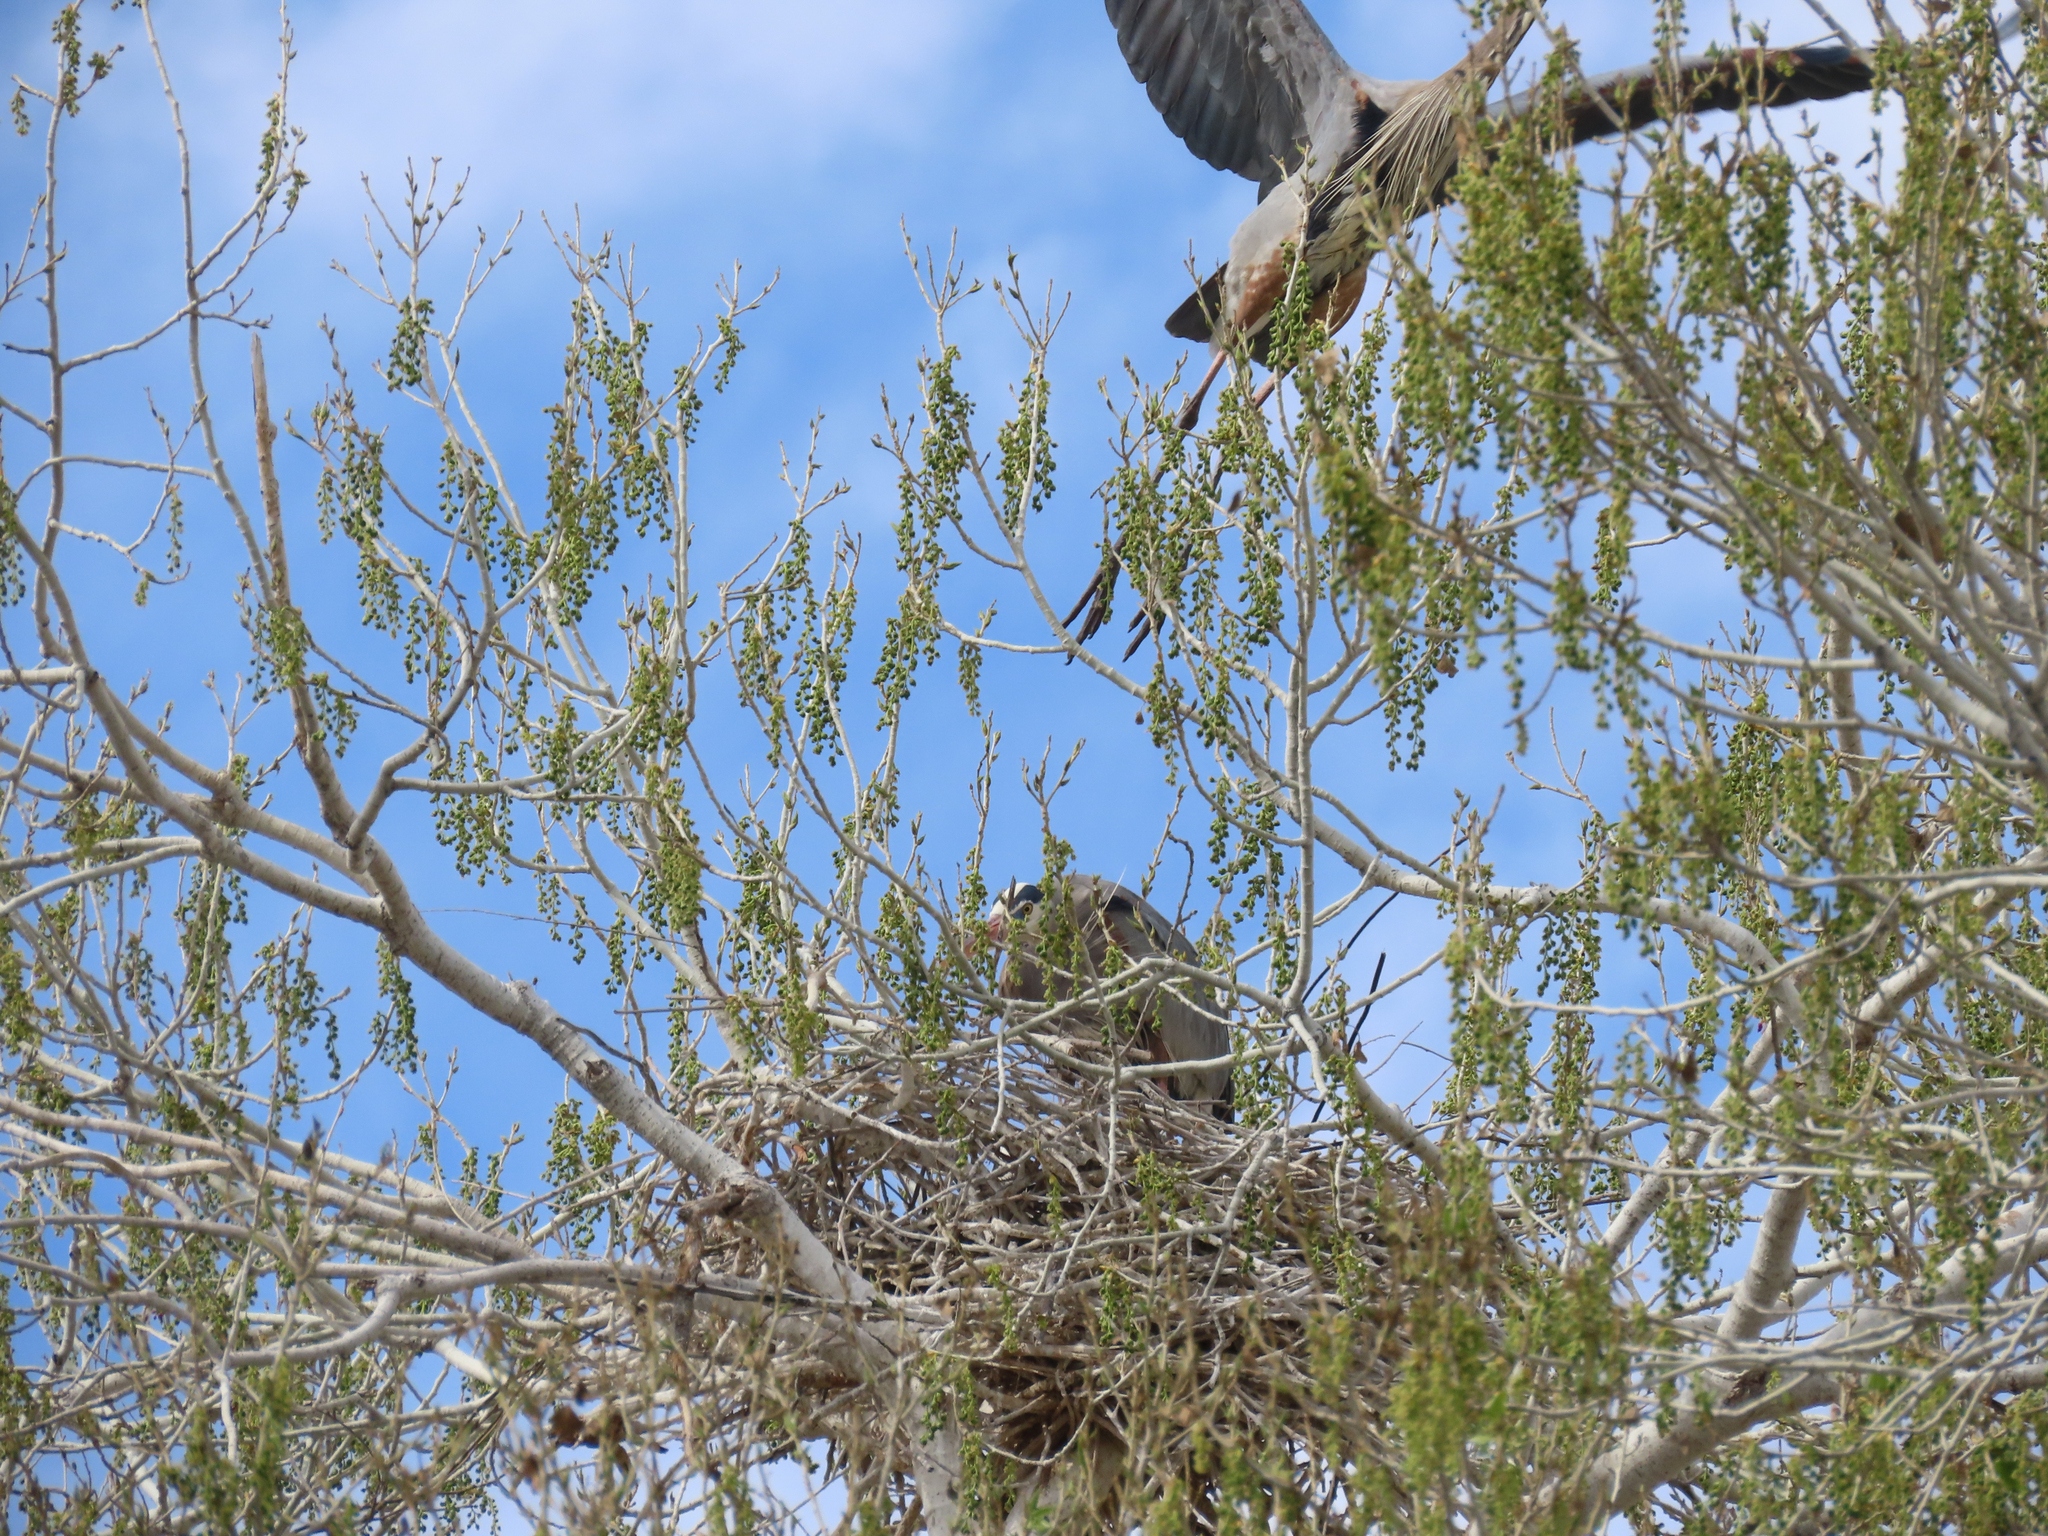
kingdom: Animalia
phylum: Chordata
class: Aves
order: Pelecaniformes
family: Ardeidae
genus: Ardea
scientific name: Ardea herodias
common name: Great blue heron
